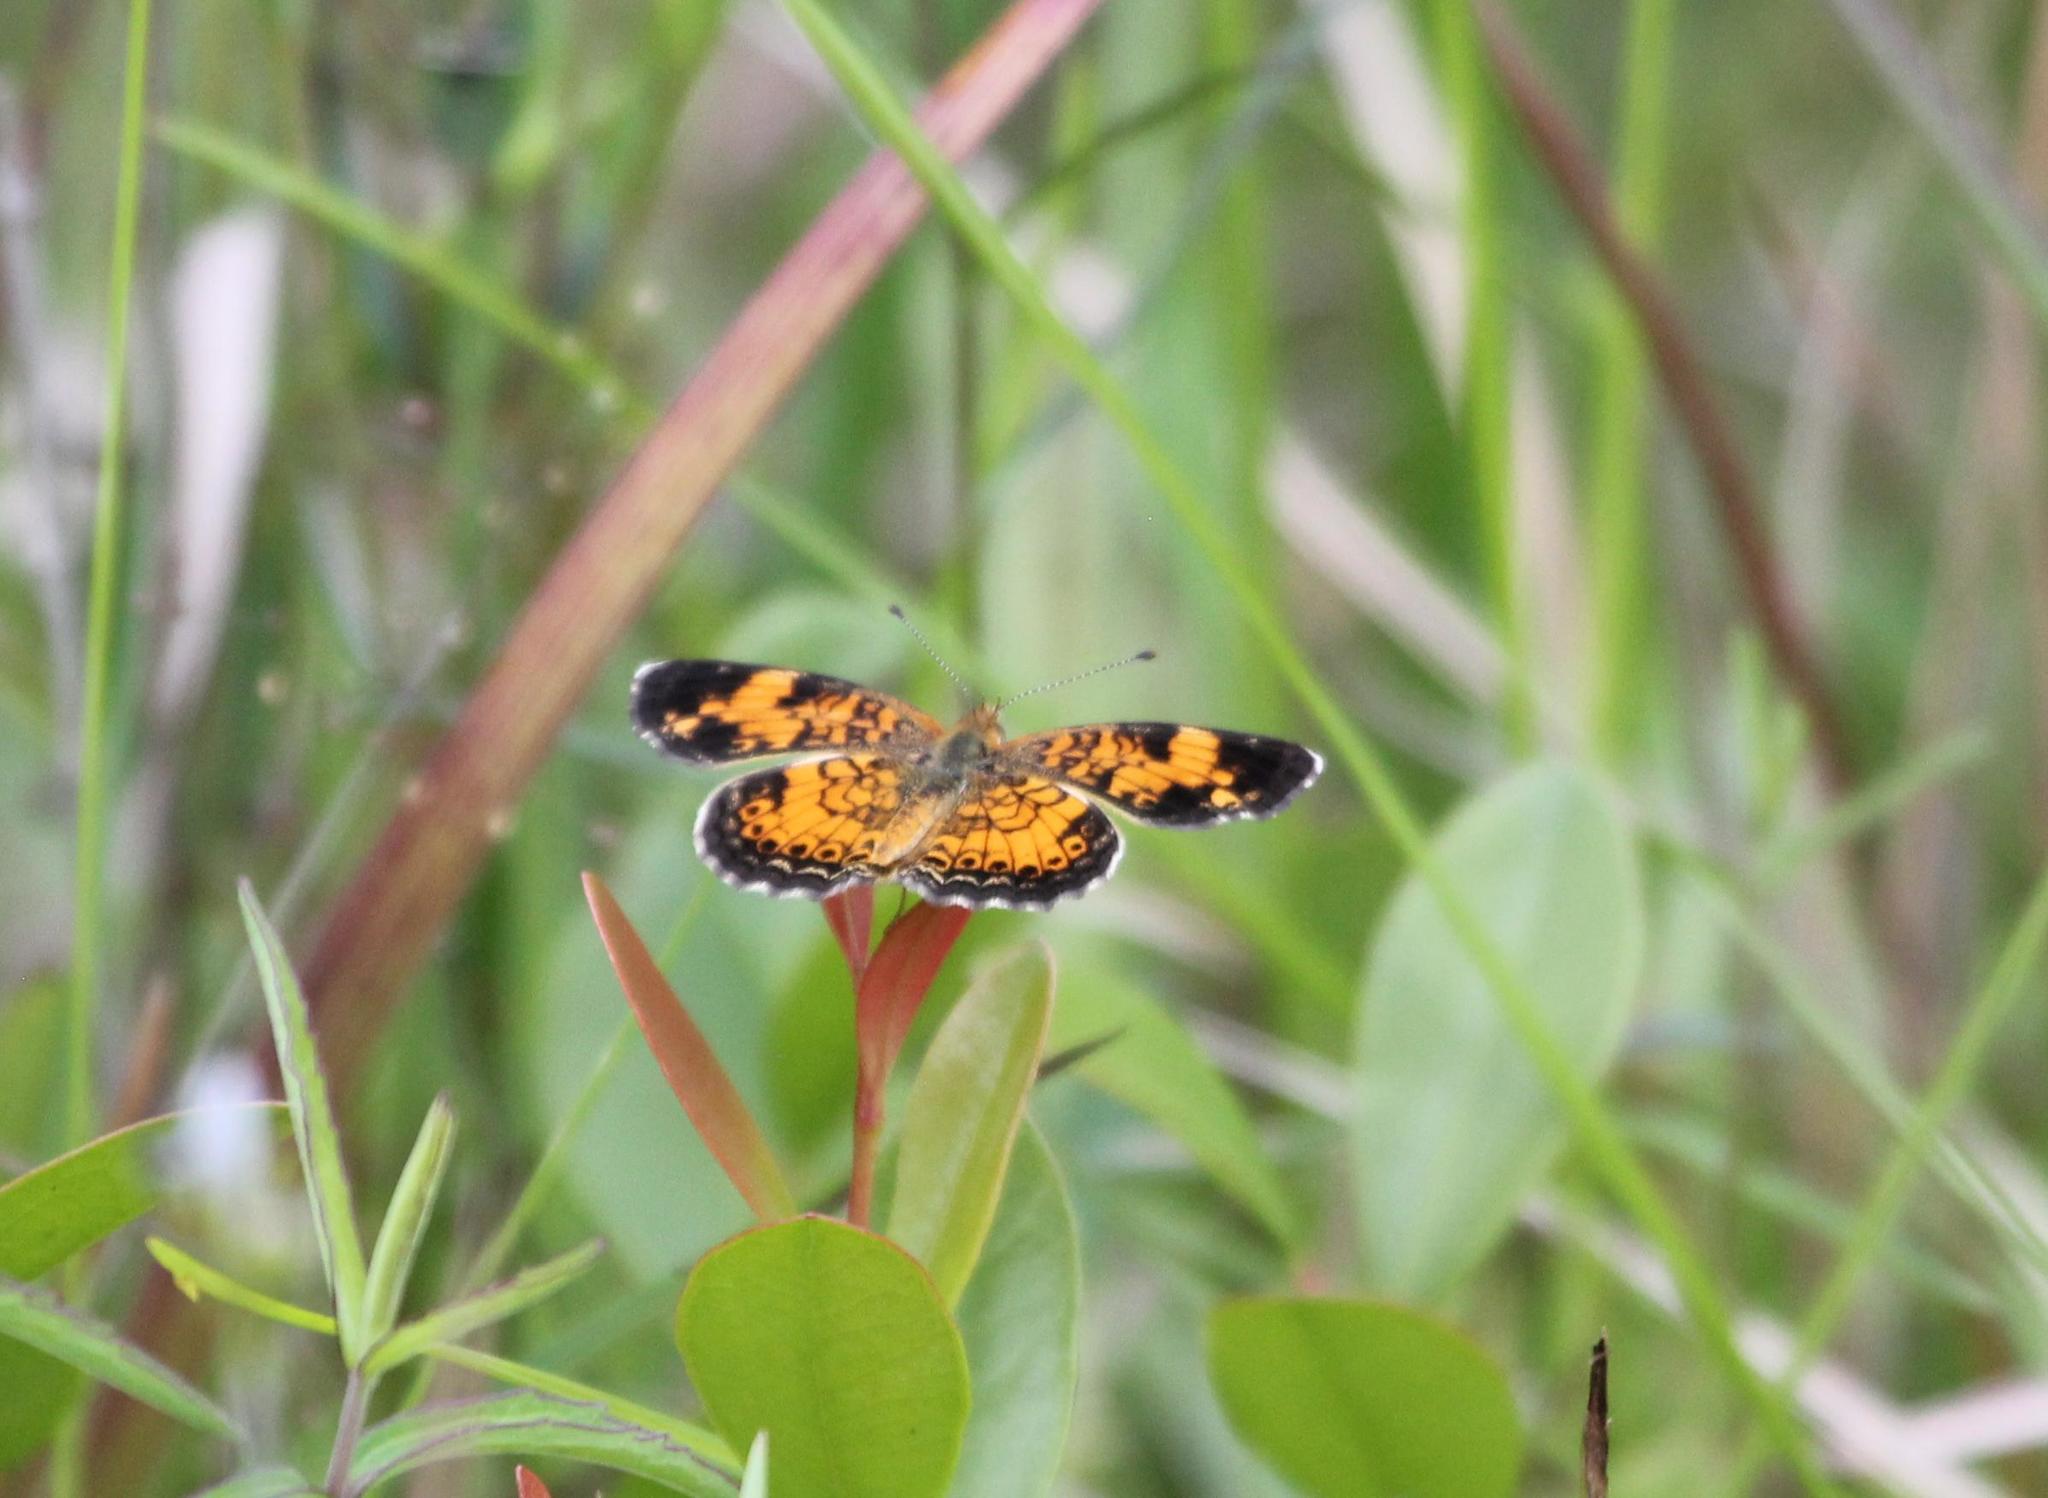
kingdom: Animalia
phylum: Arthropoda
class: Insecta
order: Lepidoptera
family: Nymphalidae
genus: Phyciodes
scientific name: Phyciodes tharos
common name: Pearl crescent
